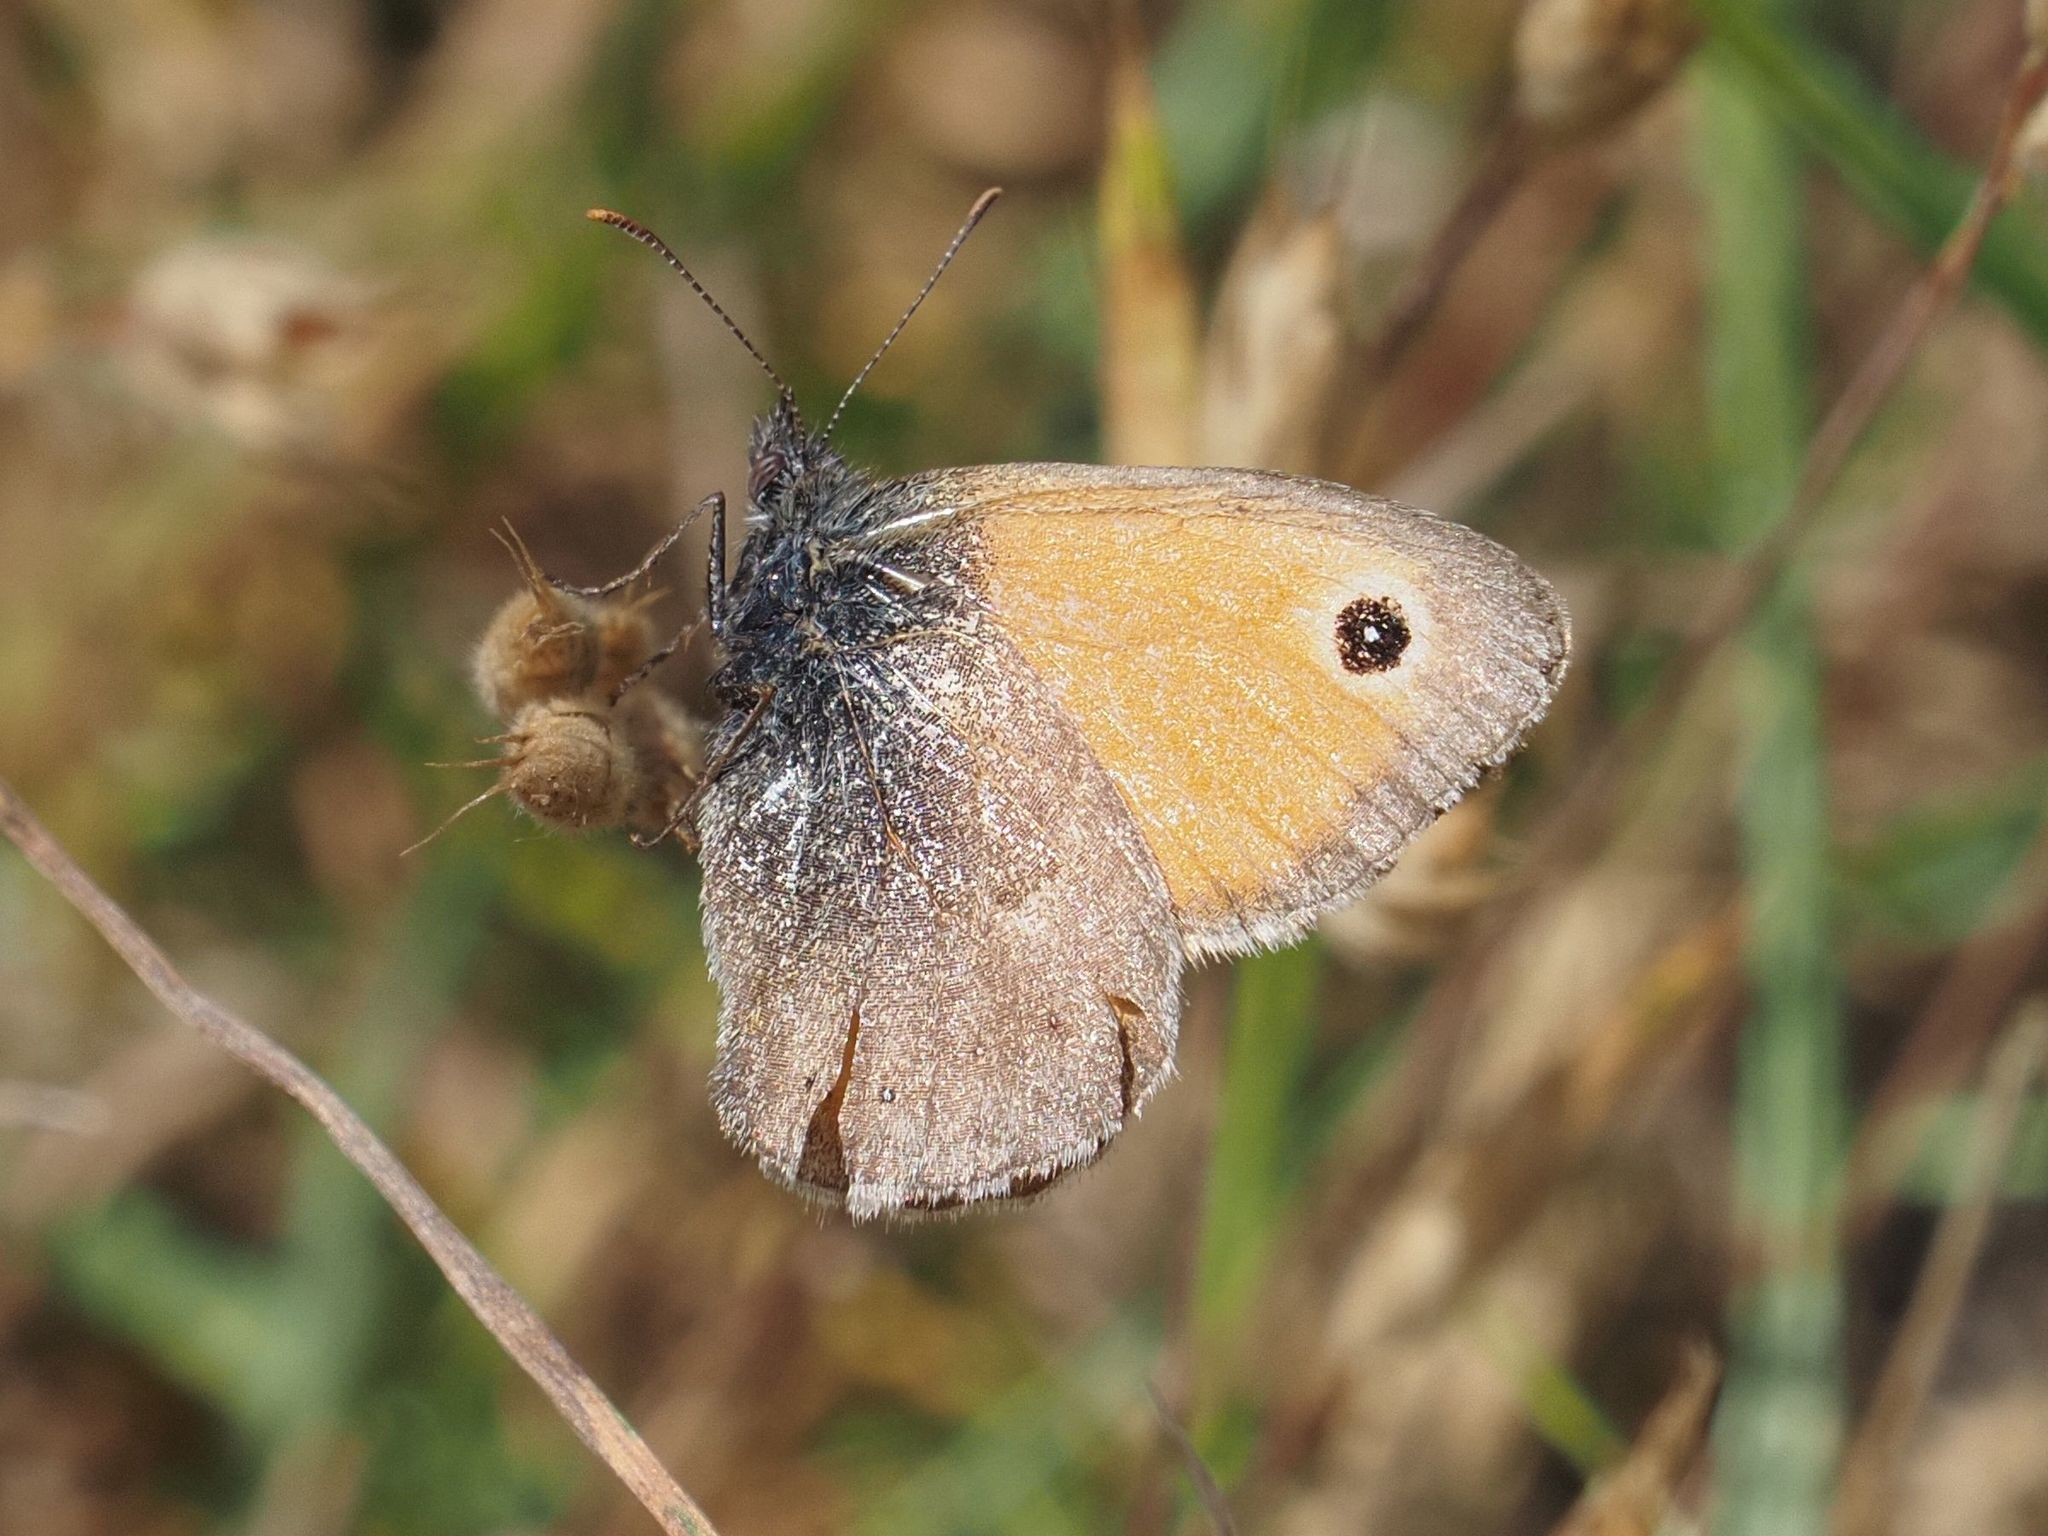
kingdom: Animalia
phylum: Arthropoda
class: Insecta
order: Lepidoptera
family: Nymphalidae
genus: Coenonympha
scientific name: Coenonympha pamphilus
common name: Small heath
